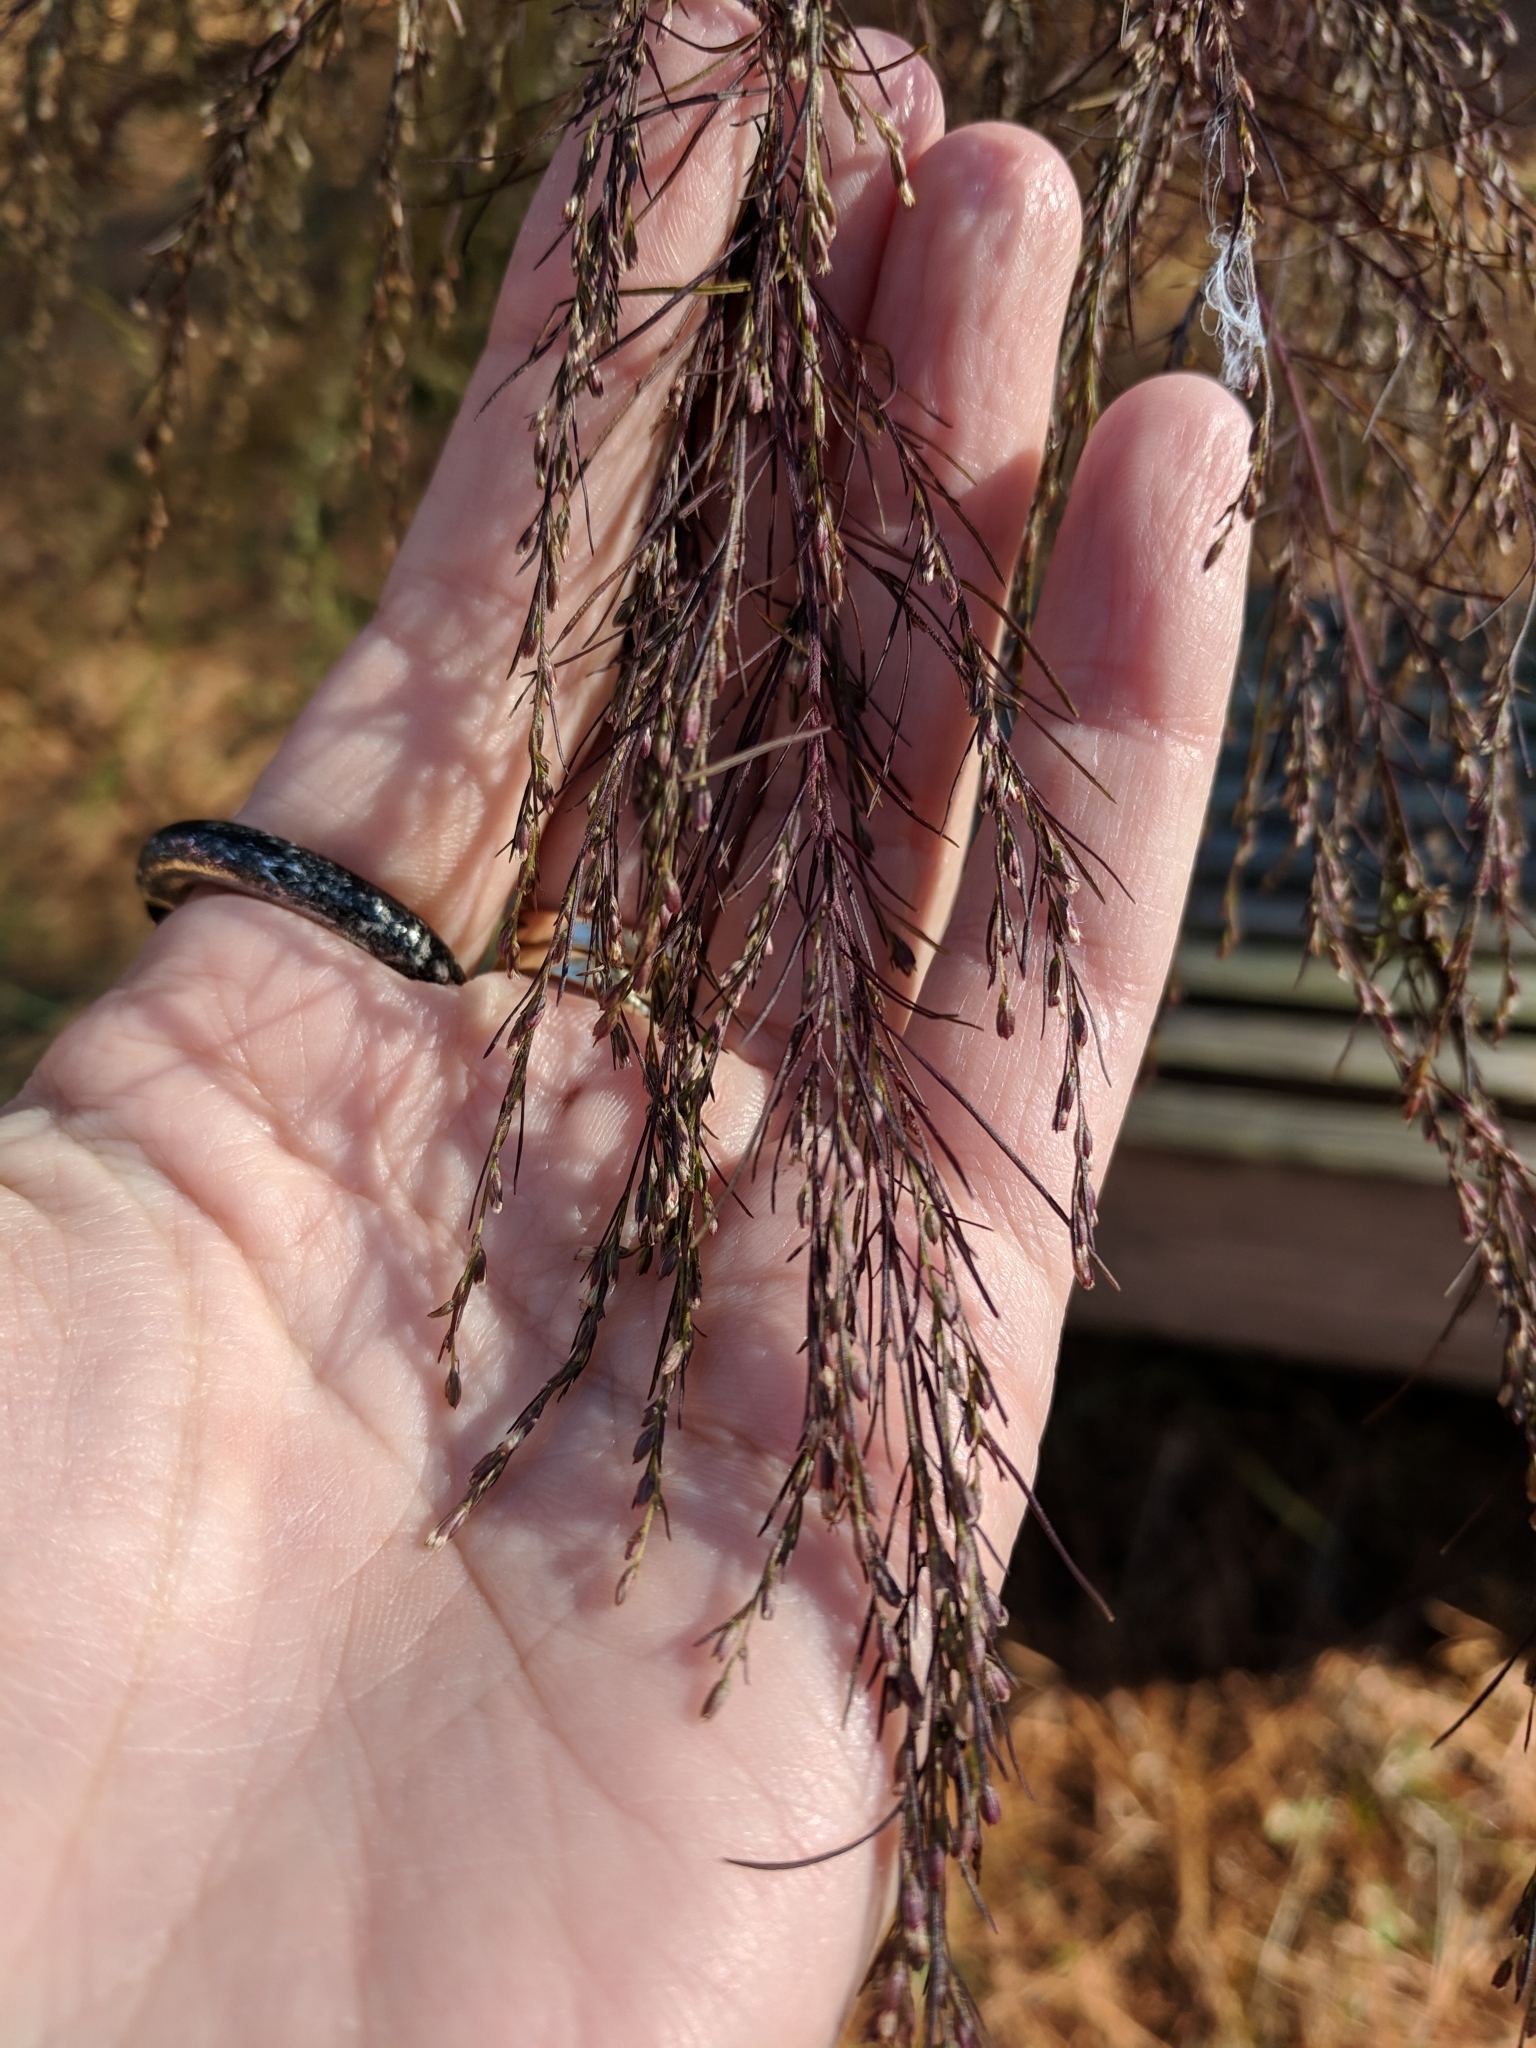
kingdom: Plantae
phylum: Tracheophyta
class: Magnoliopsida
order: Asterales
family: Asteraceae
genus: Eupatorium
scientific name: Eupatorium capillifolium
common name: Dog-fennel
